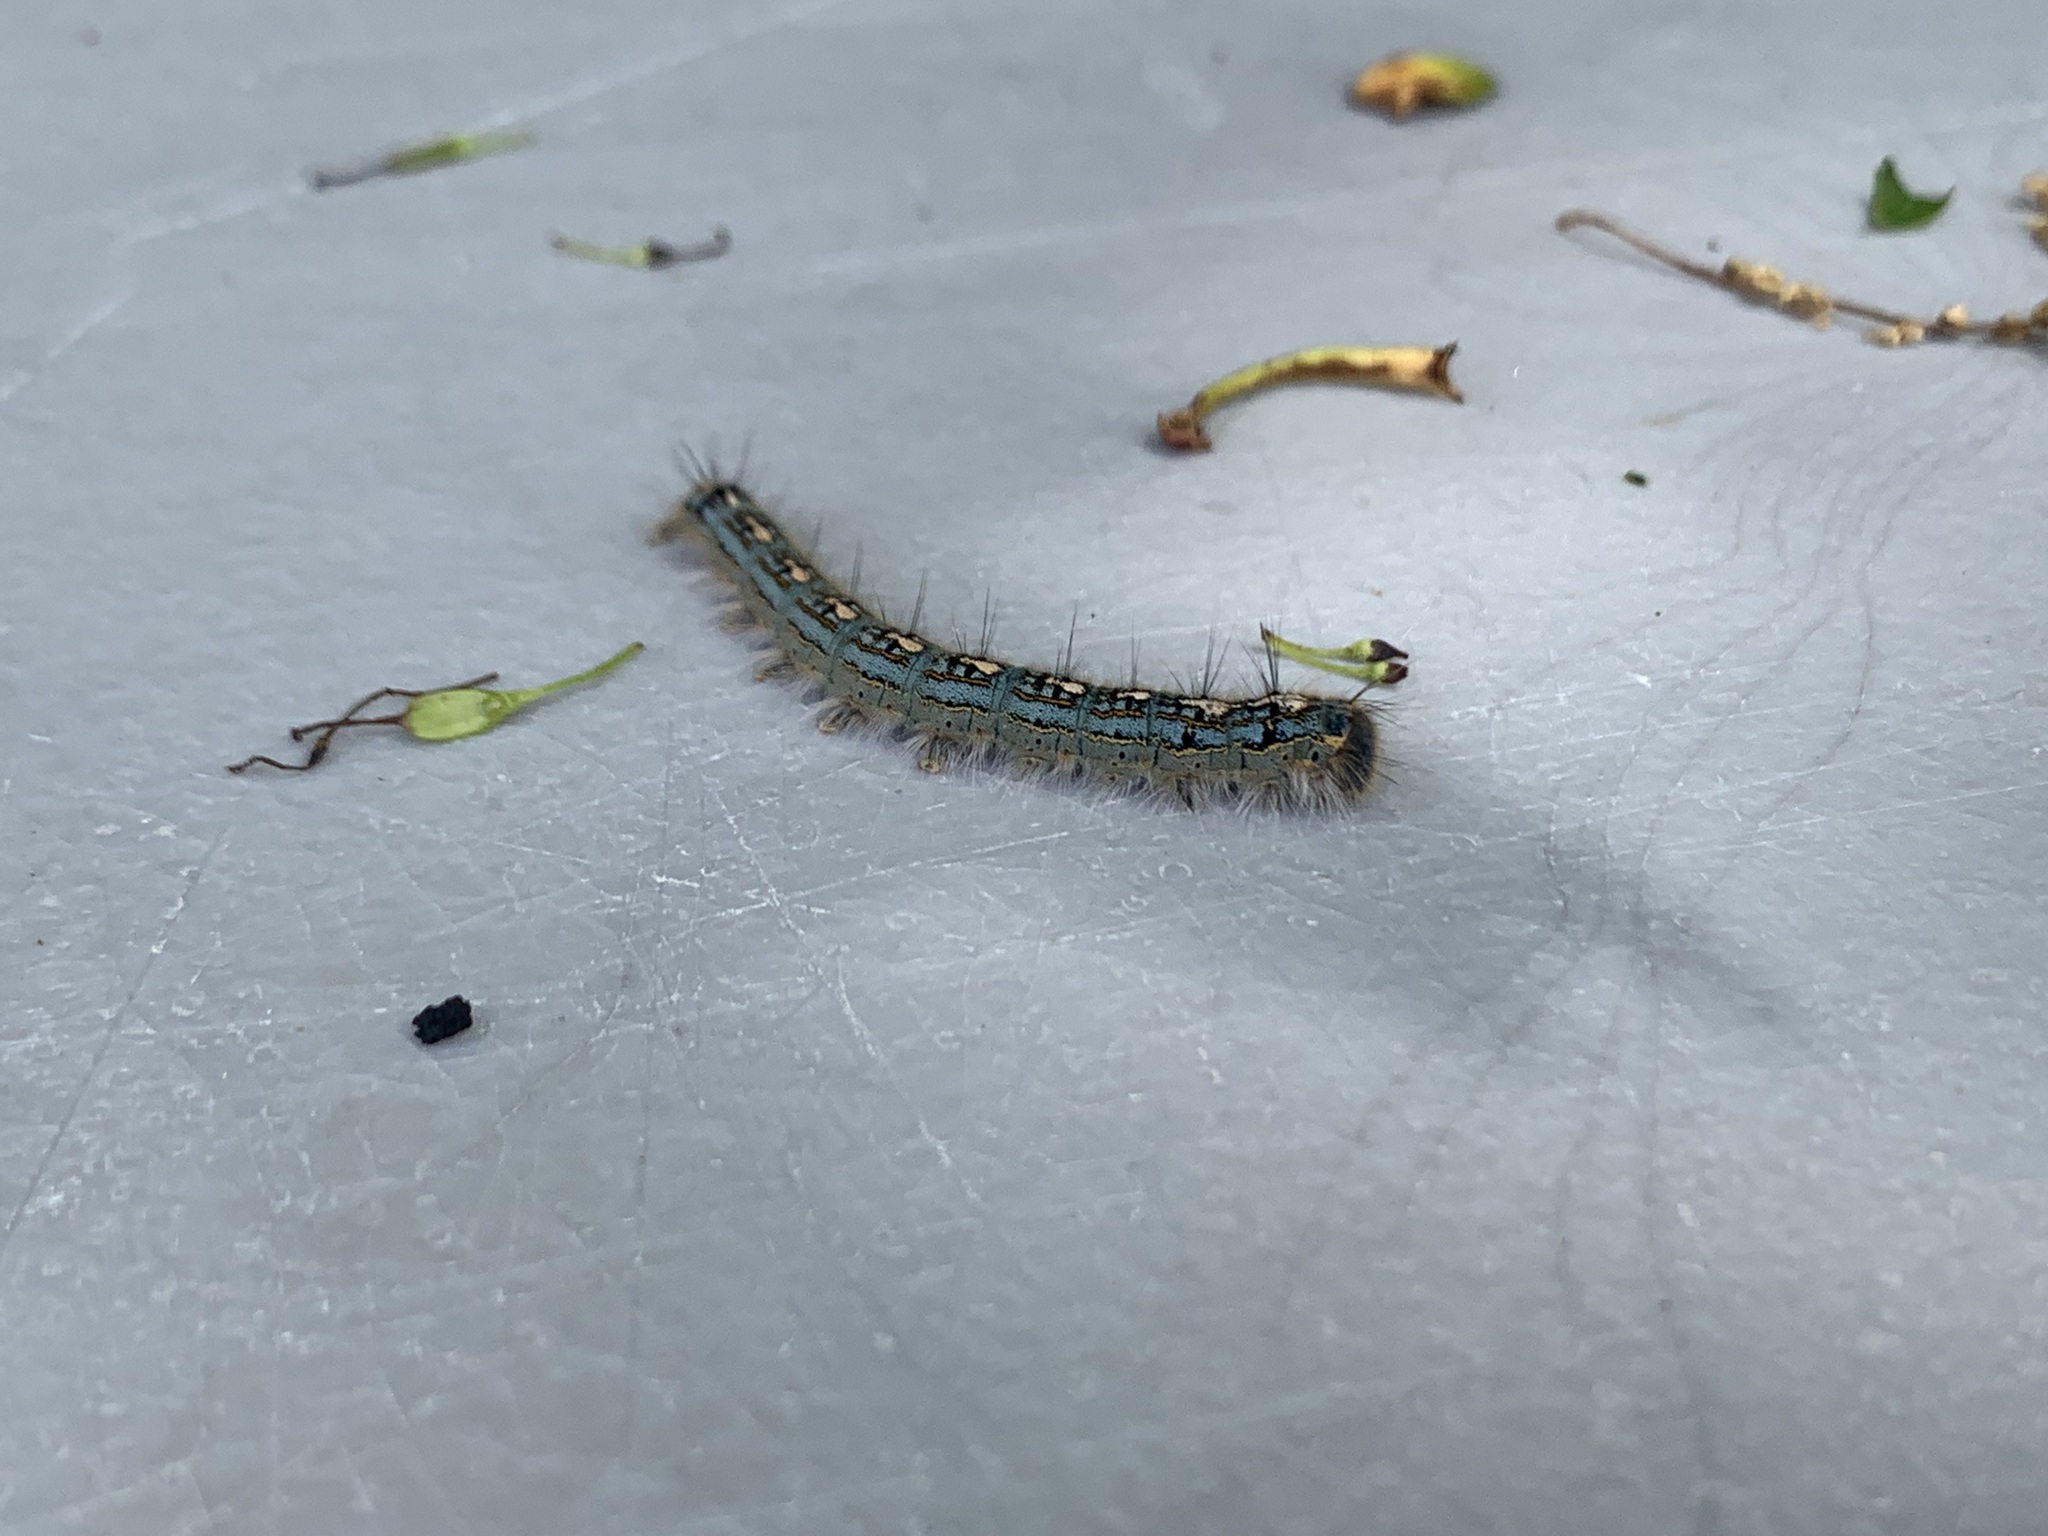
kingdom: Animalia
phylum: Arthropoda
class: Insecta
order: Lepidoptera
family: Lasiocampidae
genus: Malacosoma
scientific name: Malacosoma disstria
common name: Forest tent caterpillar
